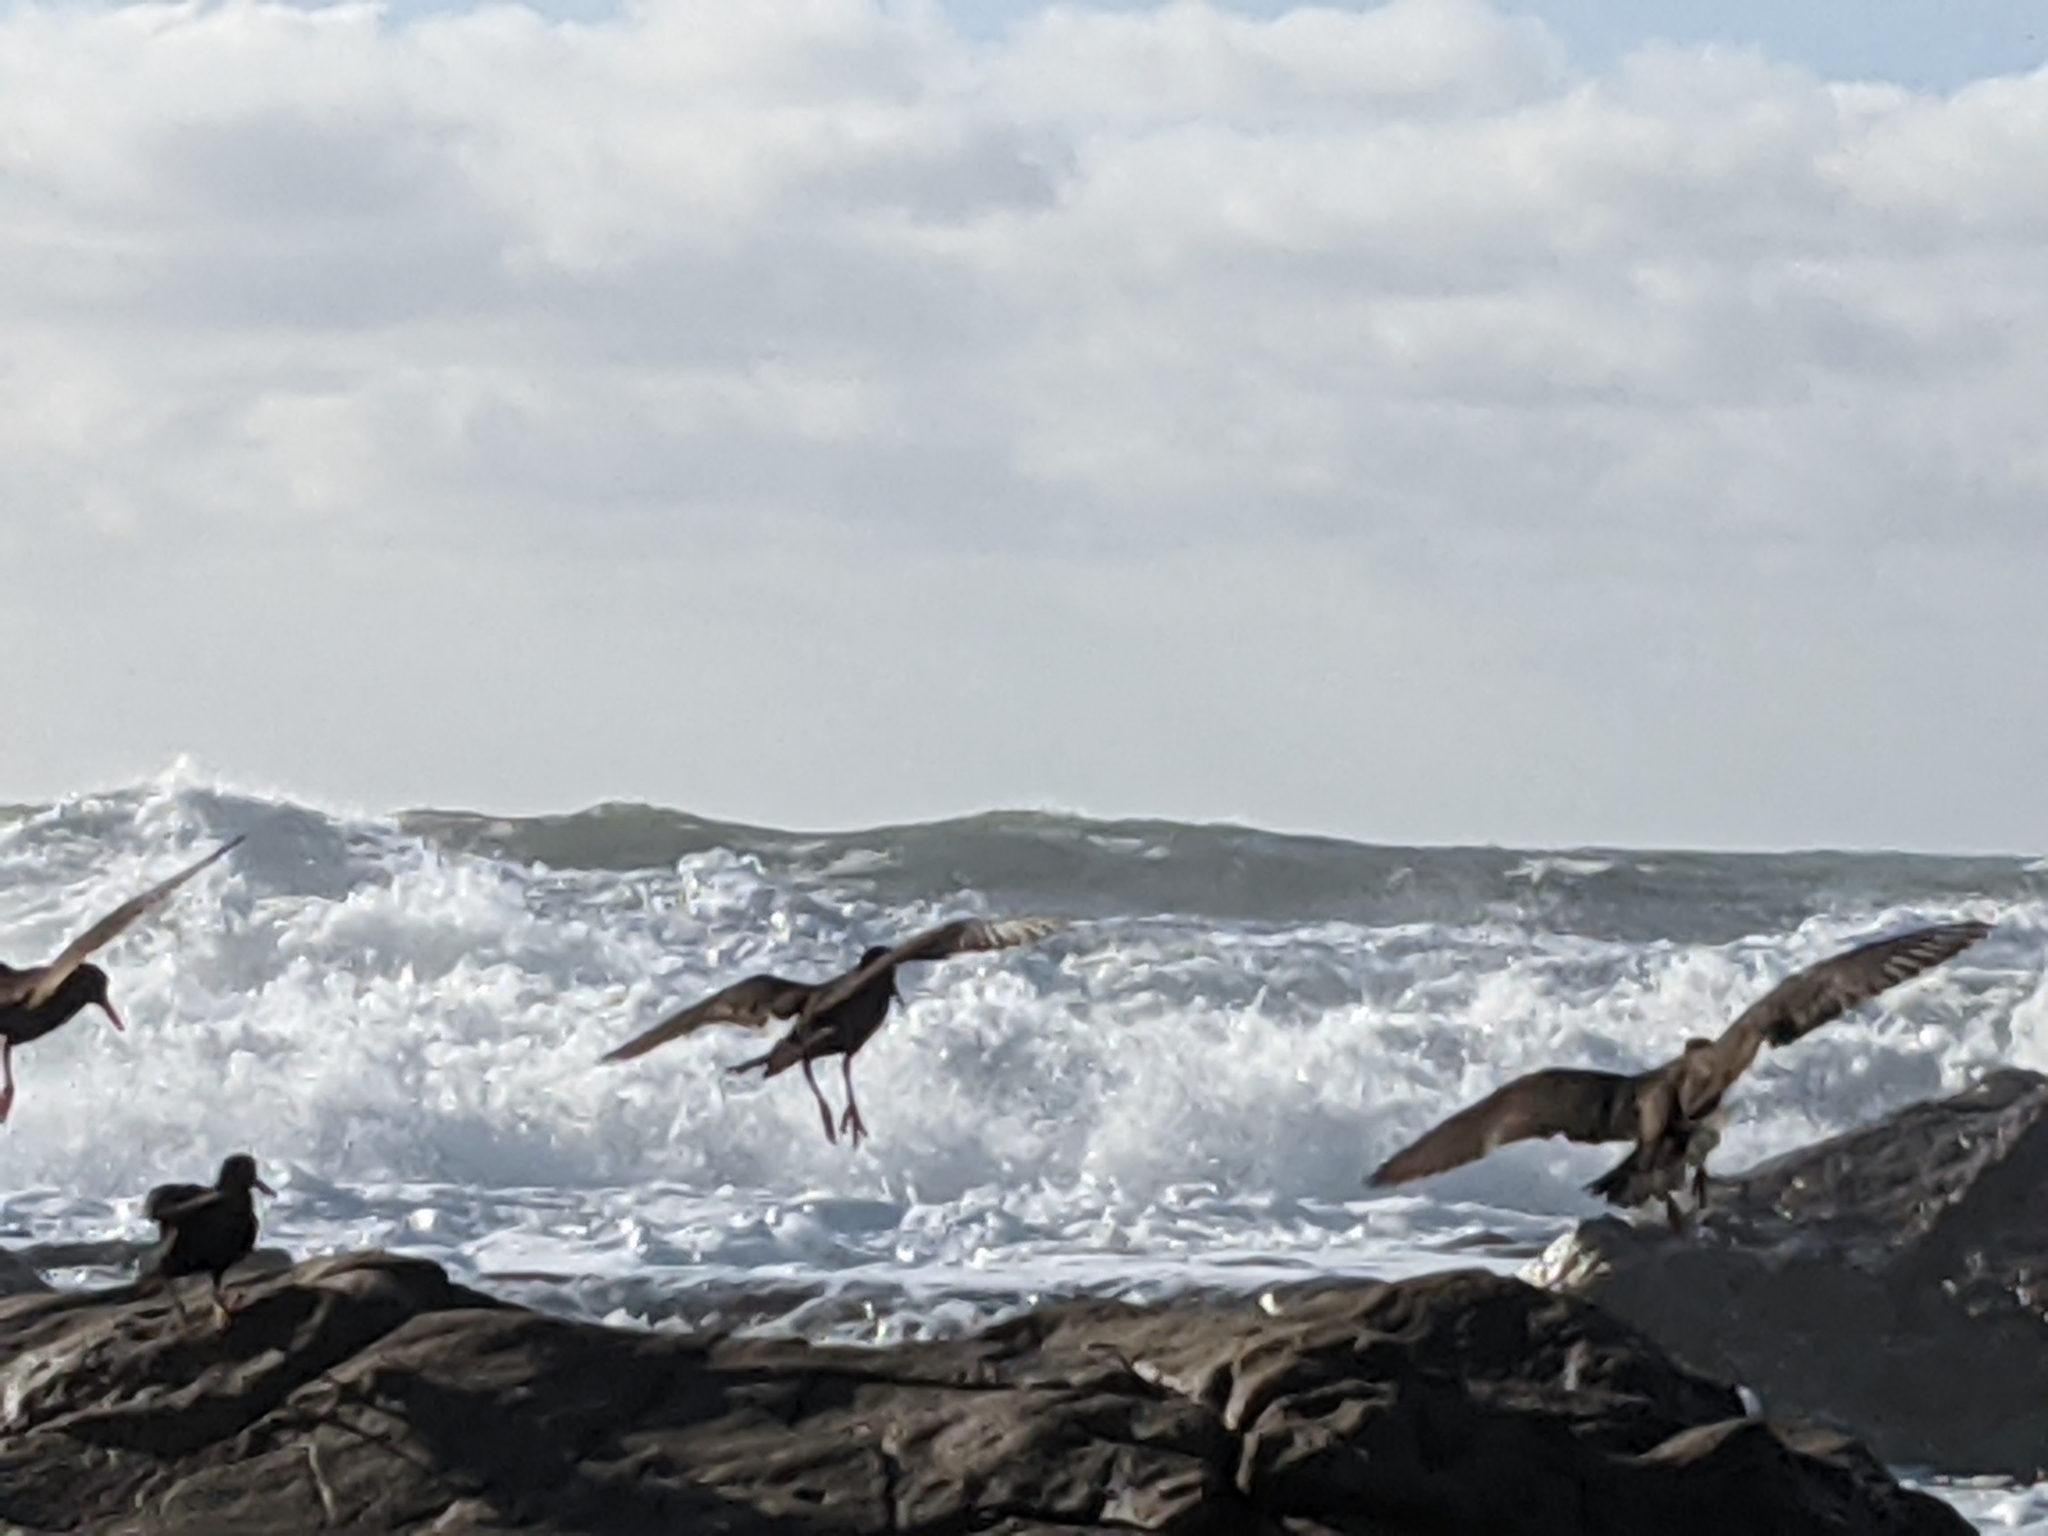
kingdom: Animalia
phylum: Chordata
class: Aves
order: Charadriiformes
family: Haematopodidae
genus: Haematopus
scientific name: Haematopus bachmani
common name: Black oystercatcher
